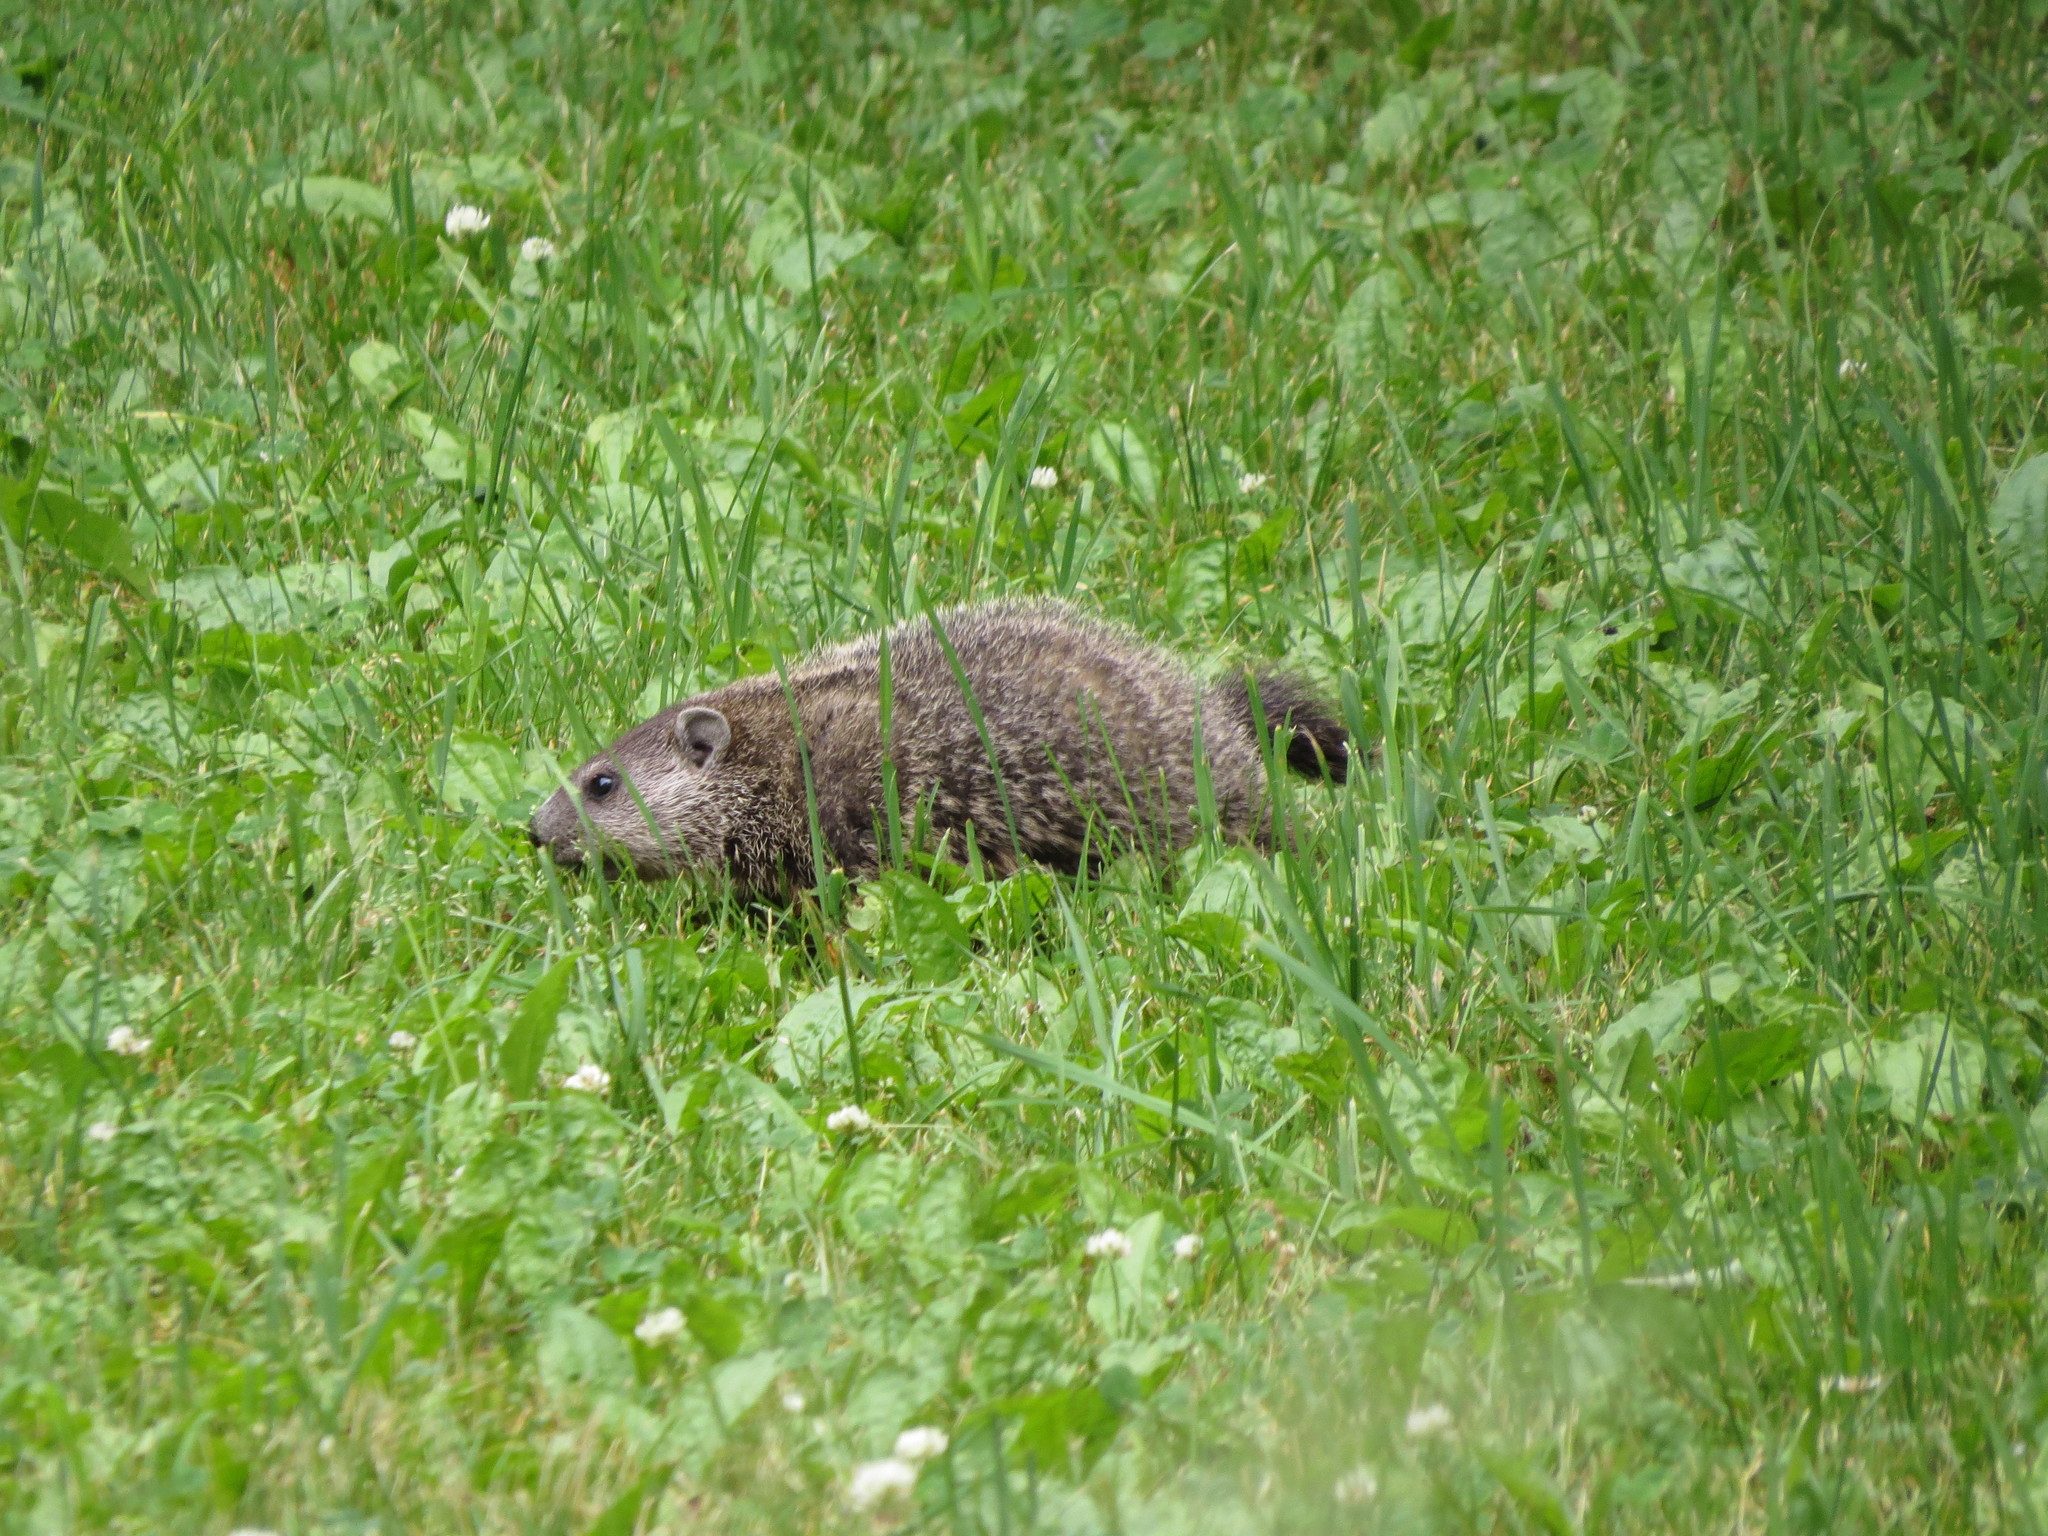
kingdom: Animalia
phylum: Chordata
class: Mammalia
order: Rodentia
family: Sciuridae
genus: Marmota
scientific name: Marmota monax
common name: Groundhog
